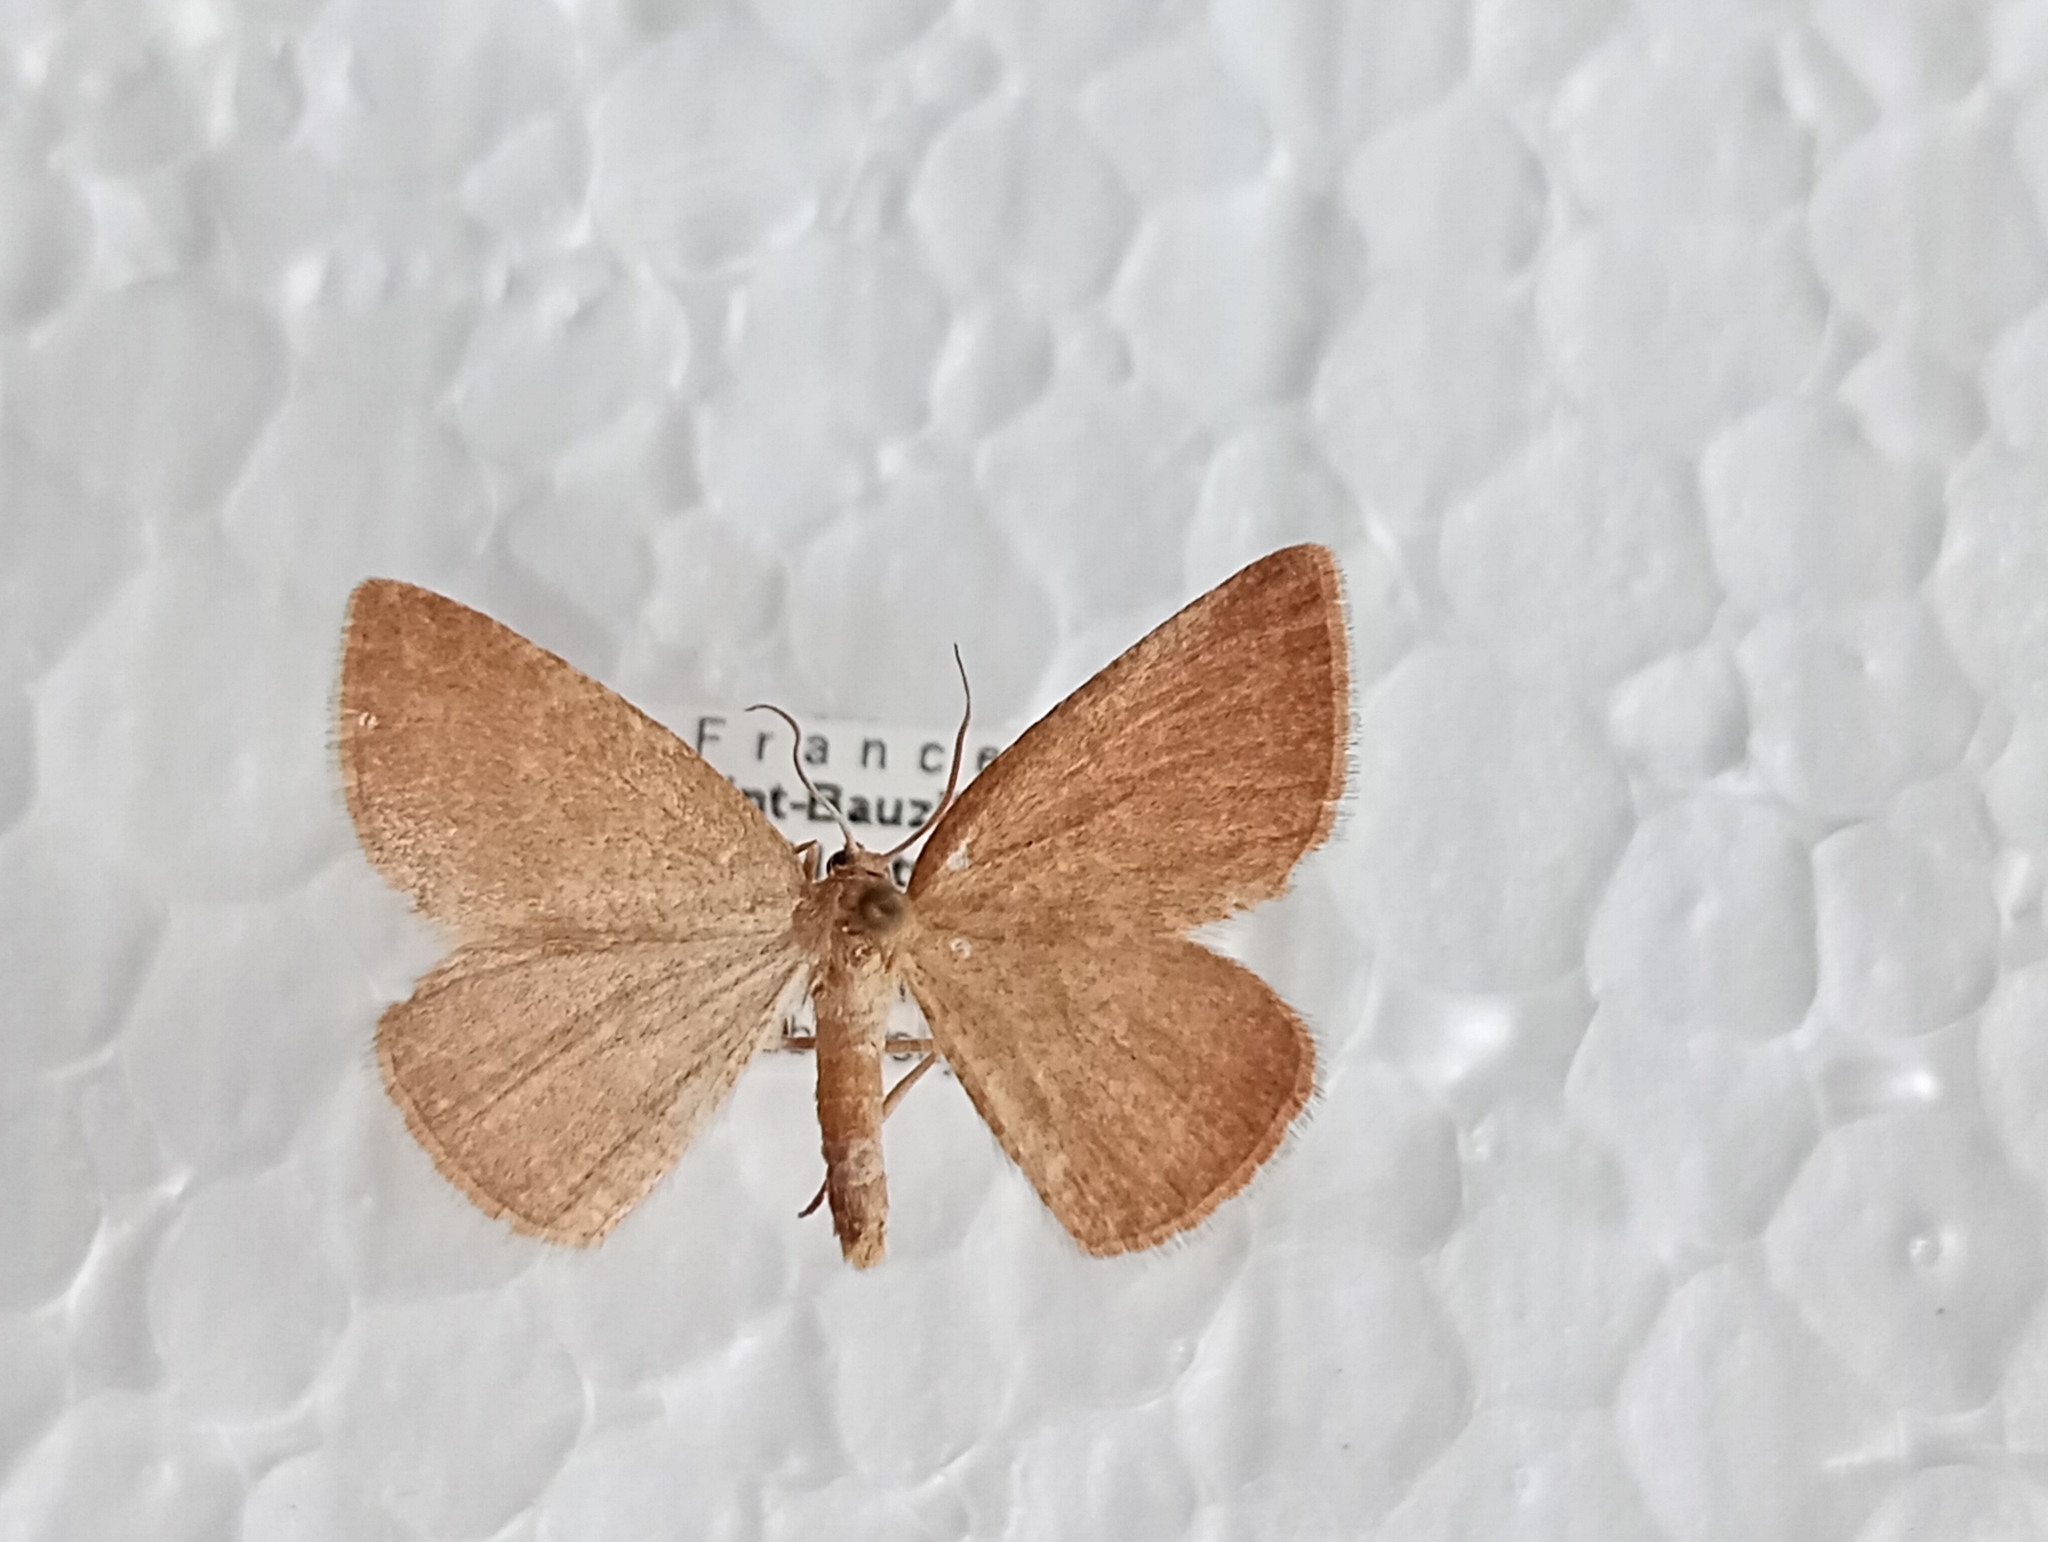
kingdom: Animalia
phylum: Arthropoda
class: Insecta
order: Lepidoptera
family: Geometridae
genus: Aplasta
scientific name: Aplasta ononaria
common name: Rest harrow
